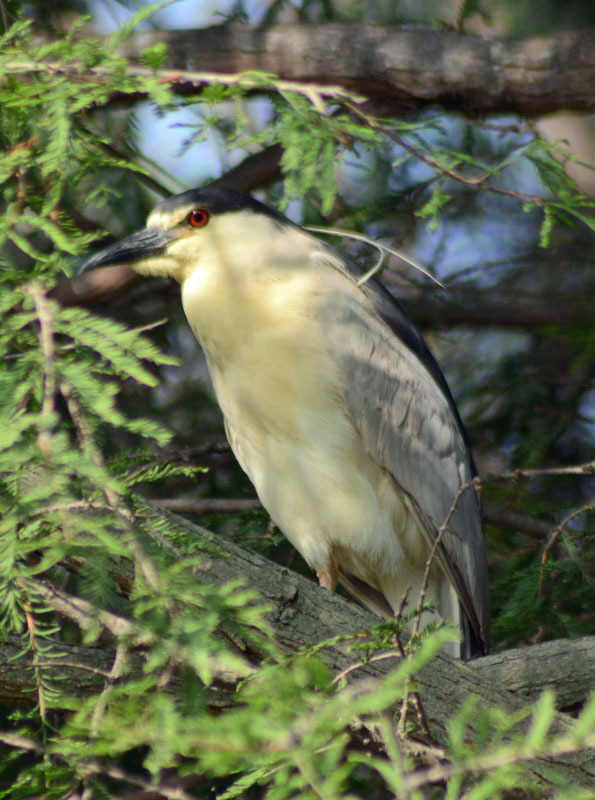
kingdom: Animalia
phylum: Chordata
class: Aves
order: Pelecaniformes
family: Ardeidae
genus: Nycticorax
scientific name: Nycticorax nycticorax
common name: Black-crowned night heron
